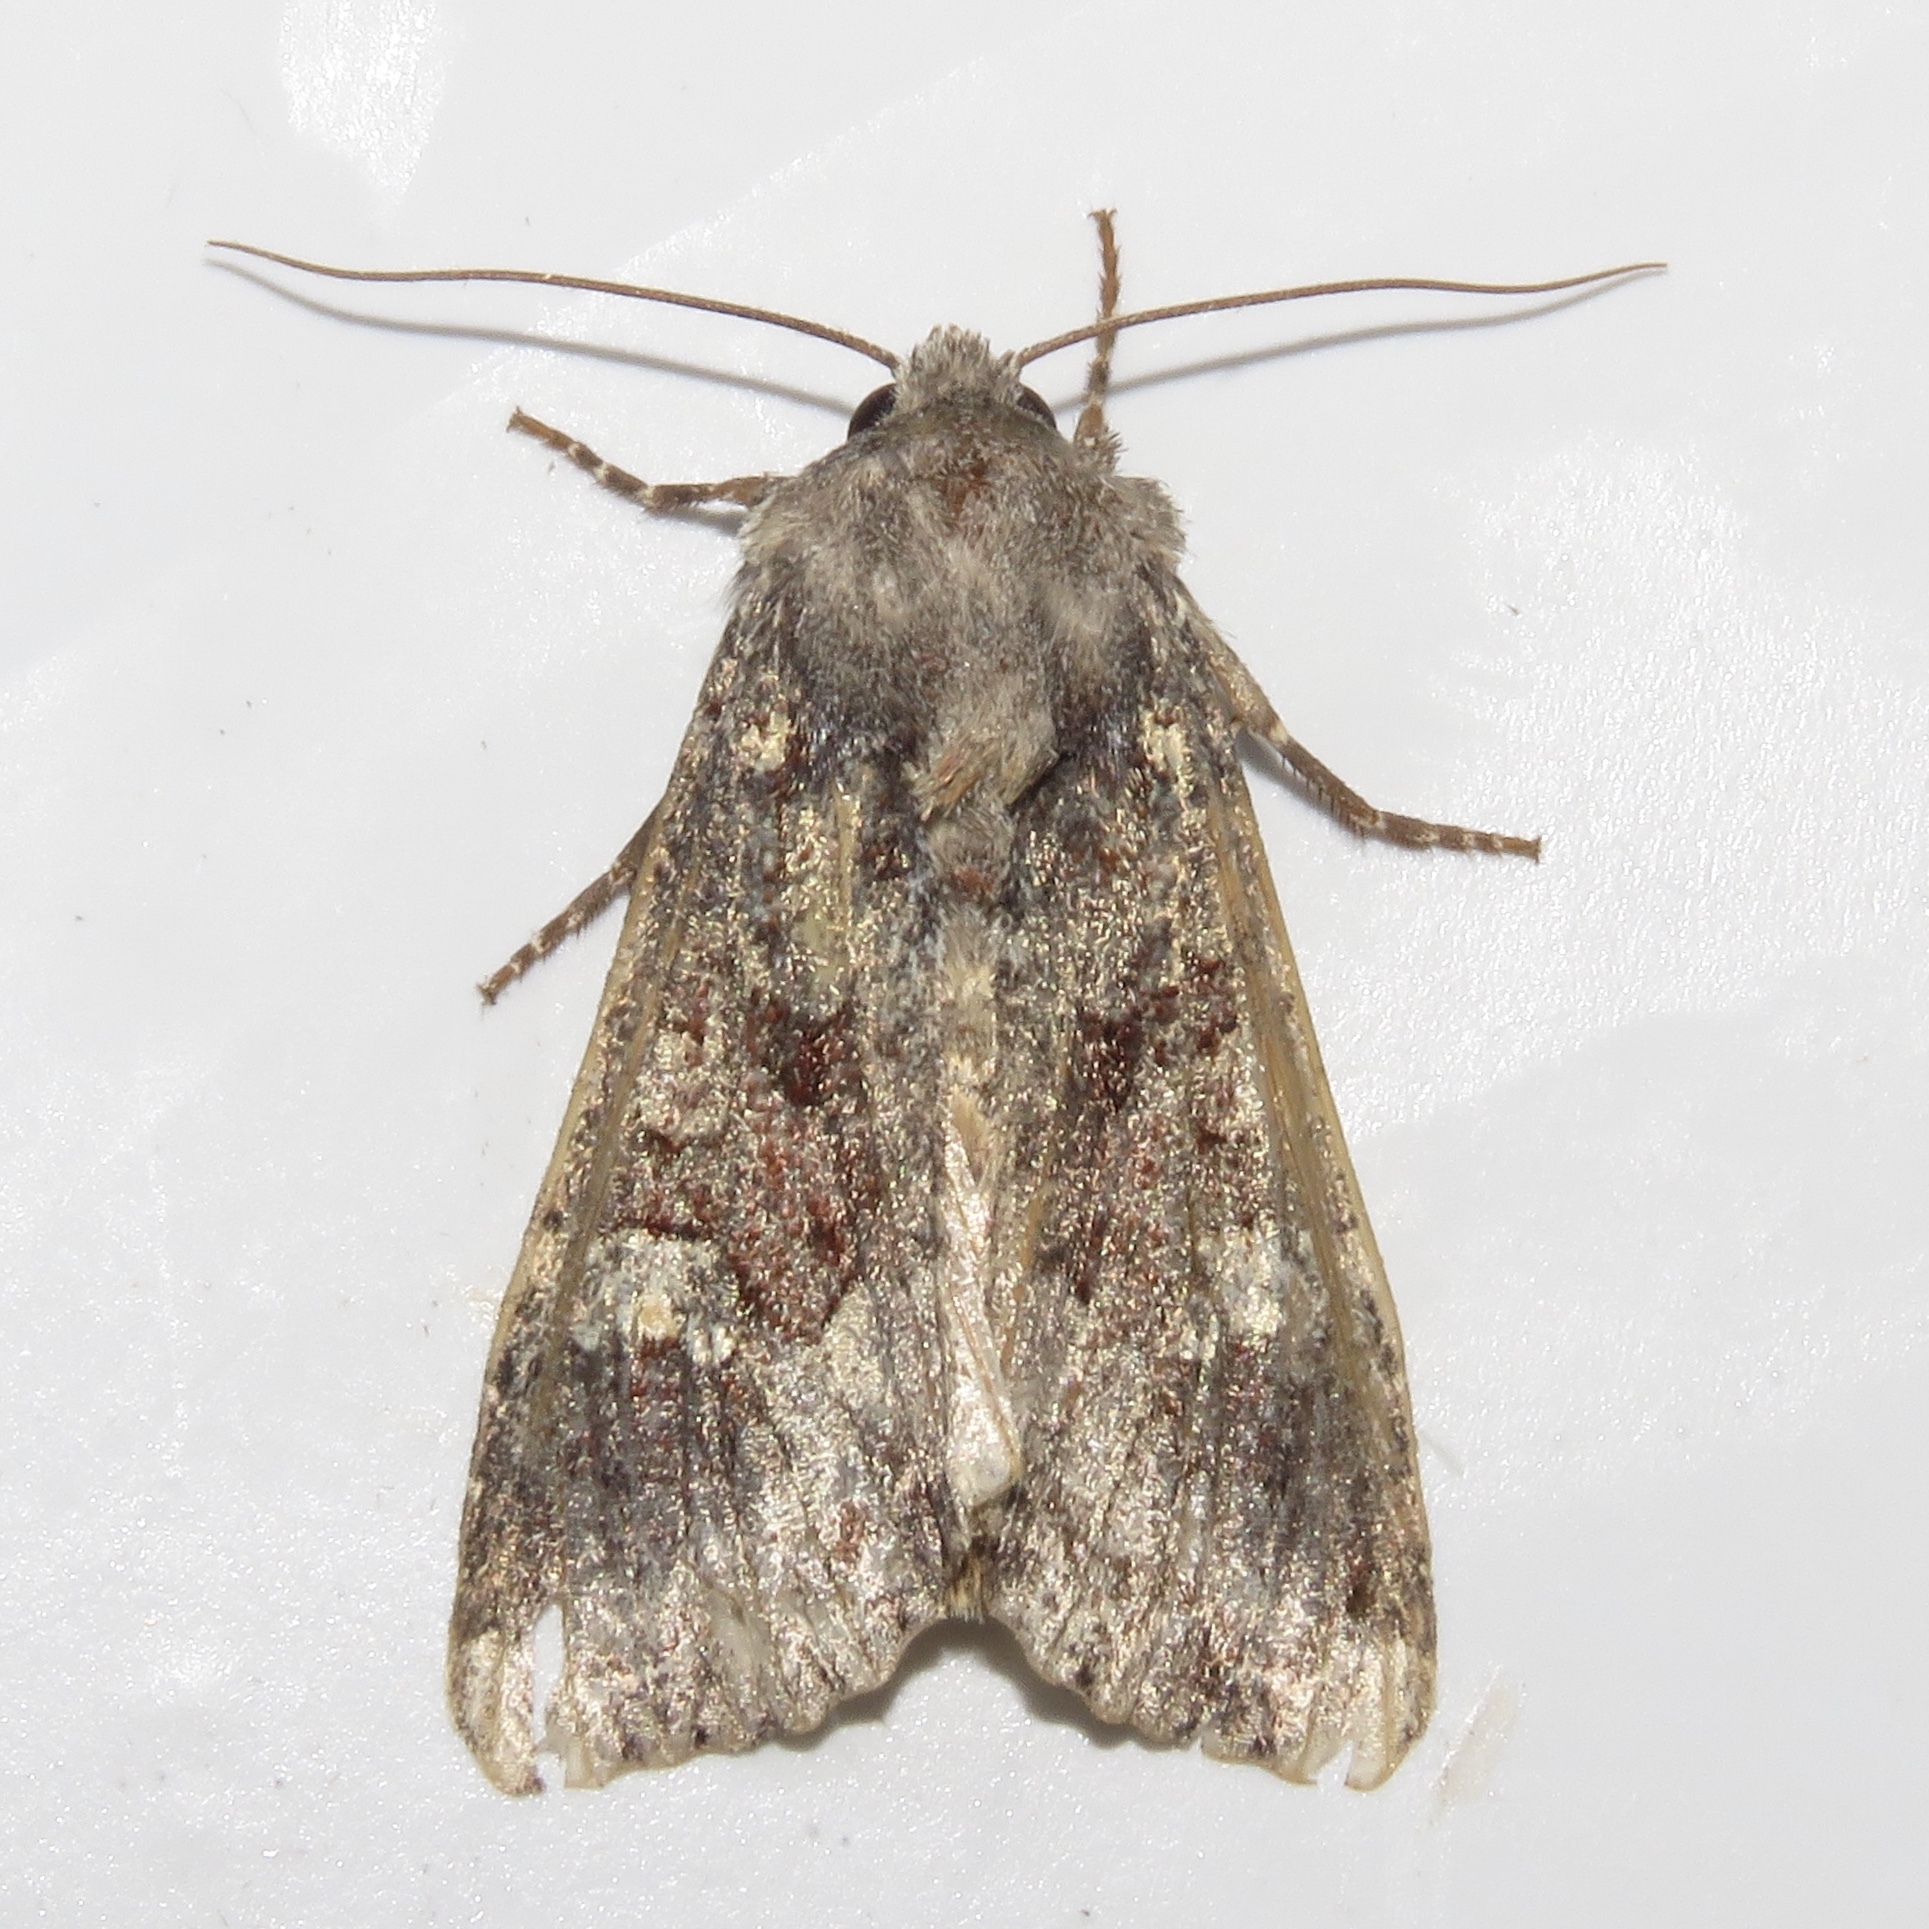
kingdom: Animalia
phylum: Arthropoda
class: Insecta
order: Lepidoptera
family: Noctuidae
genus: Apamea
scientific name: Apamea amputatrix
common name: Yellow-headed cutworm moth
